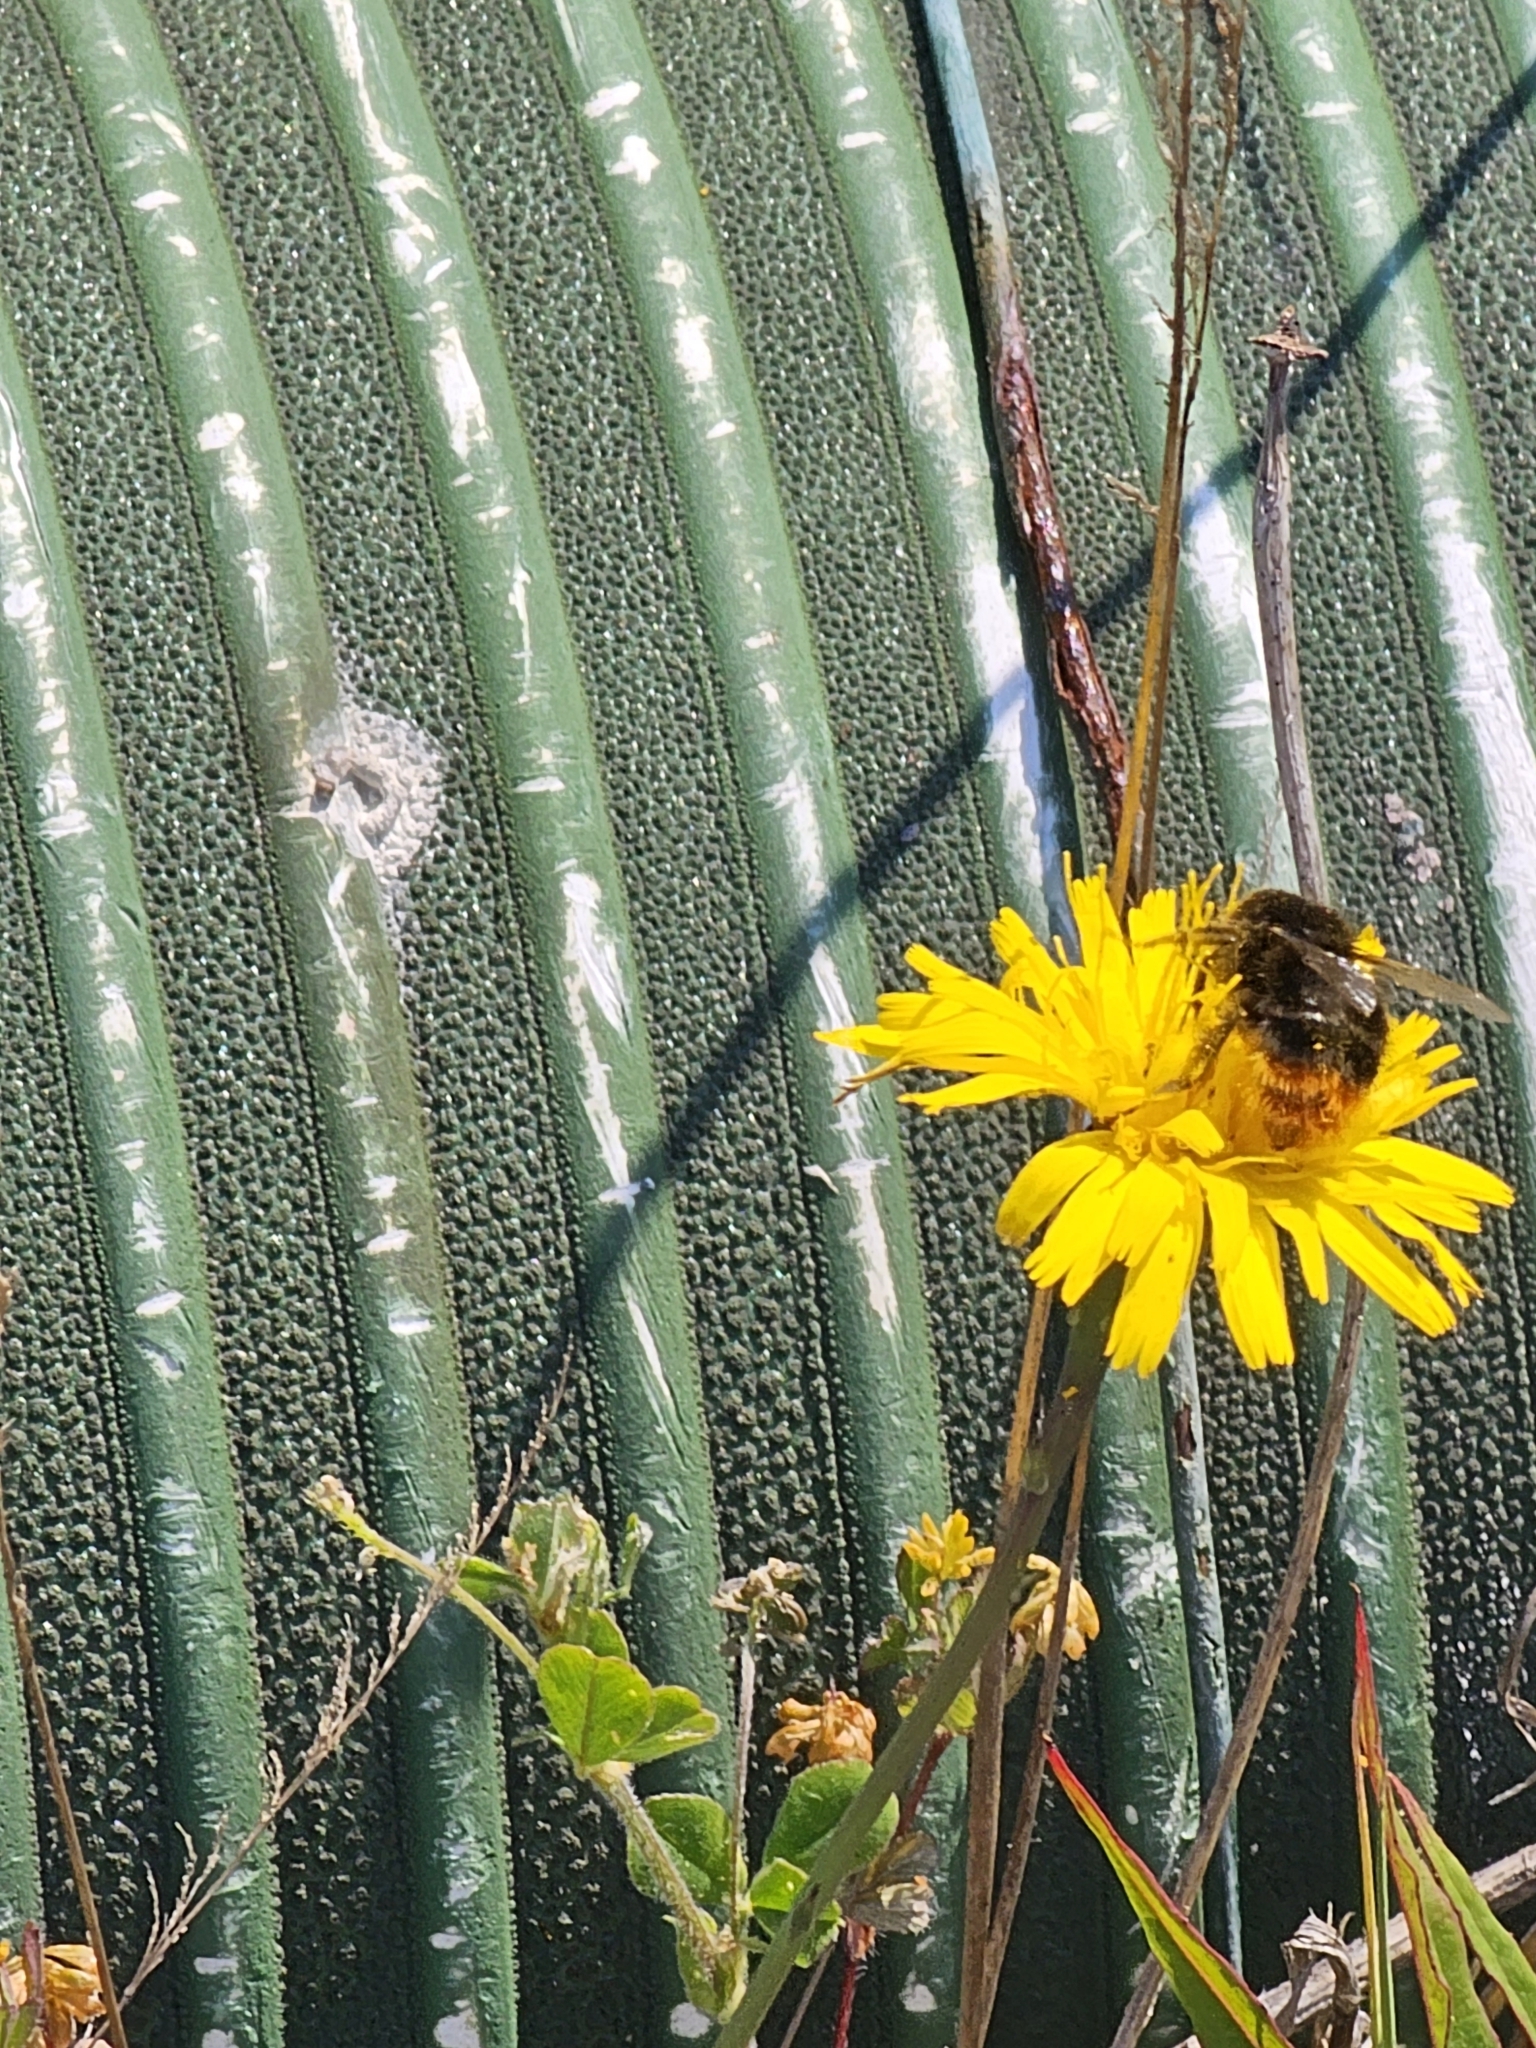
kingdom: Animalia
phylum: Arthropoda
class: Insecta
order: Hymenoptera
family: Apidae
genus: Bombus
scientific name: Bombus lapidarius
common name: Large red-tailed humble-bee
